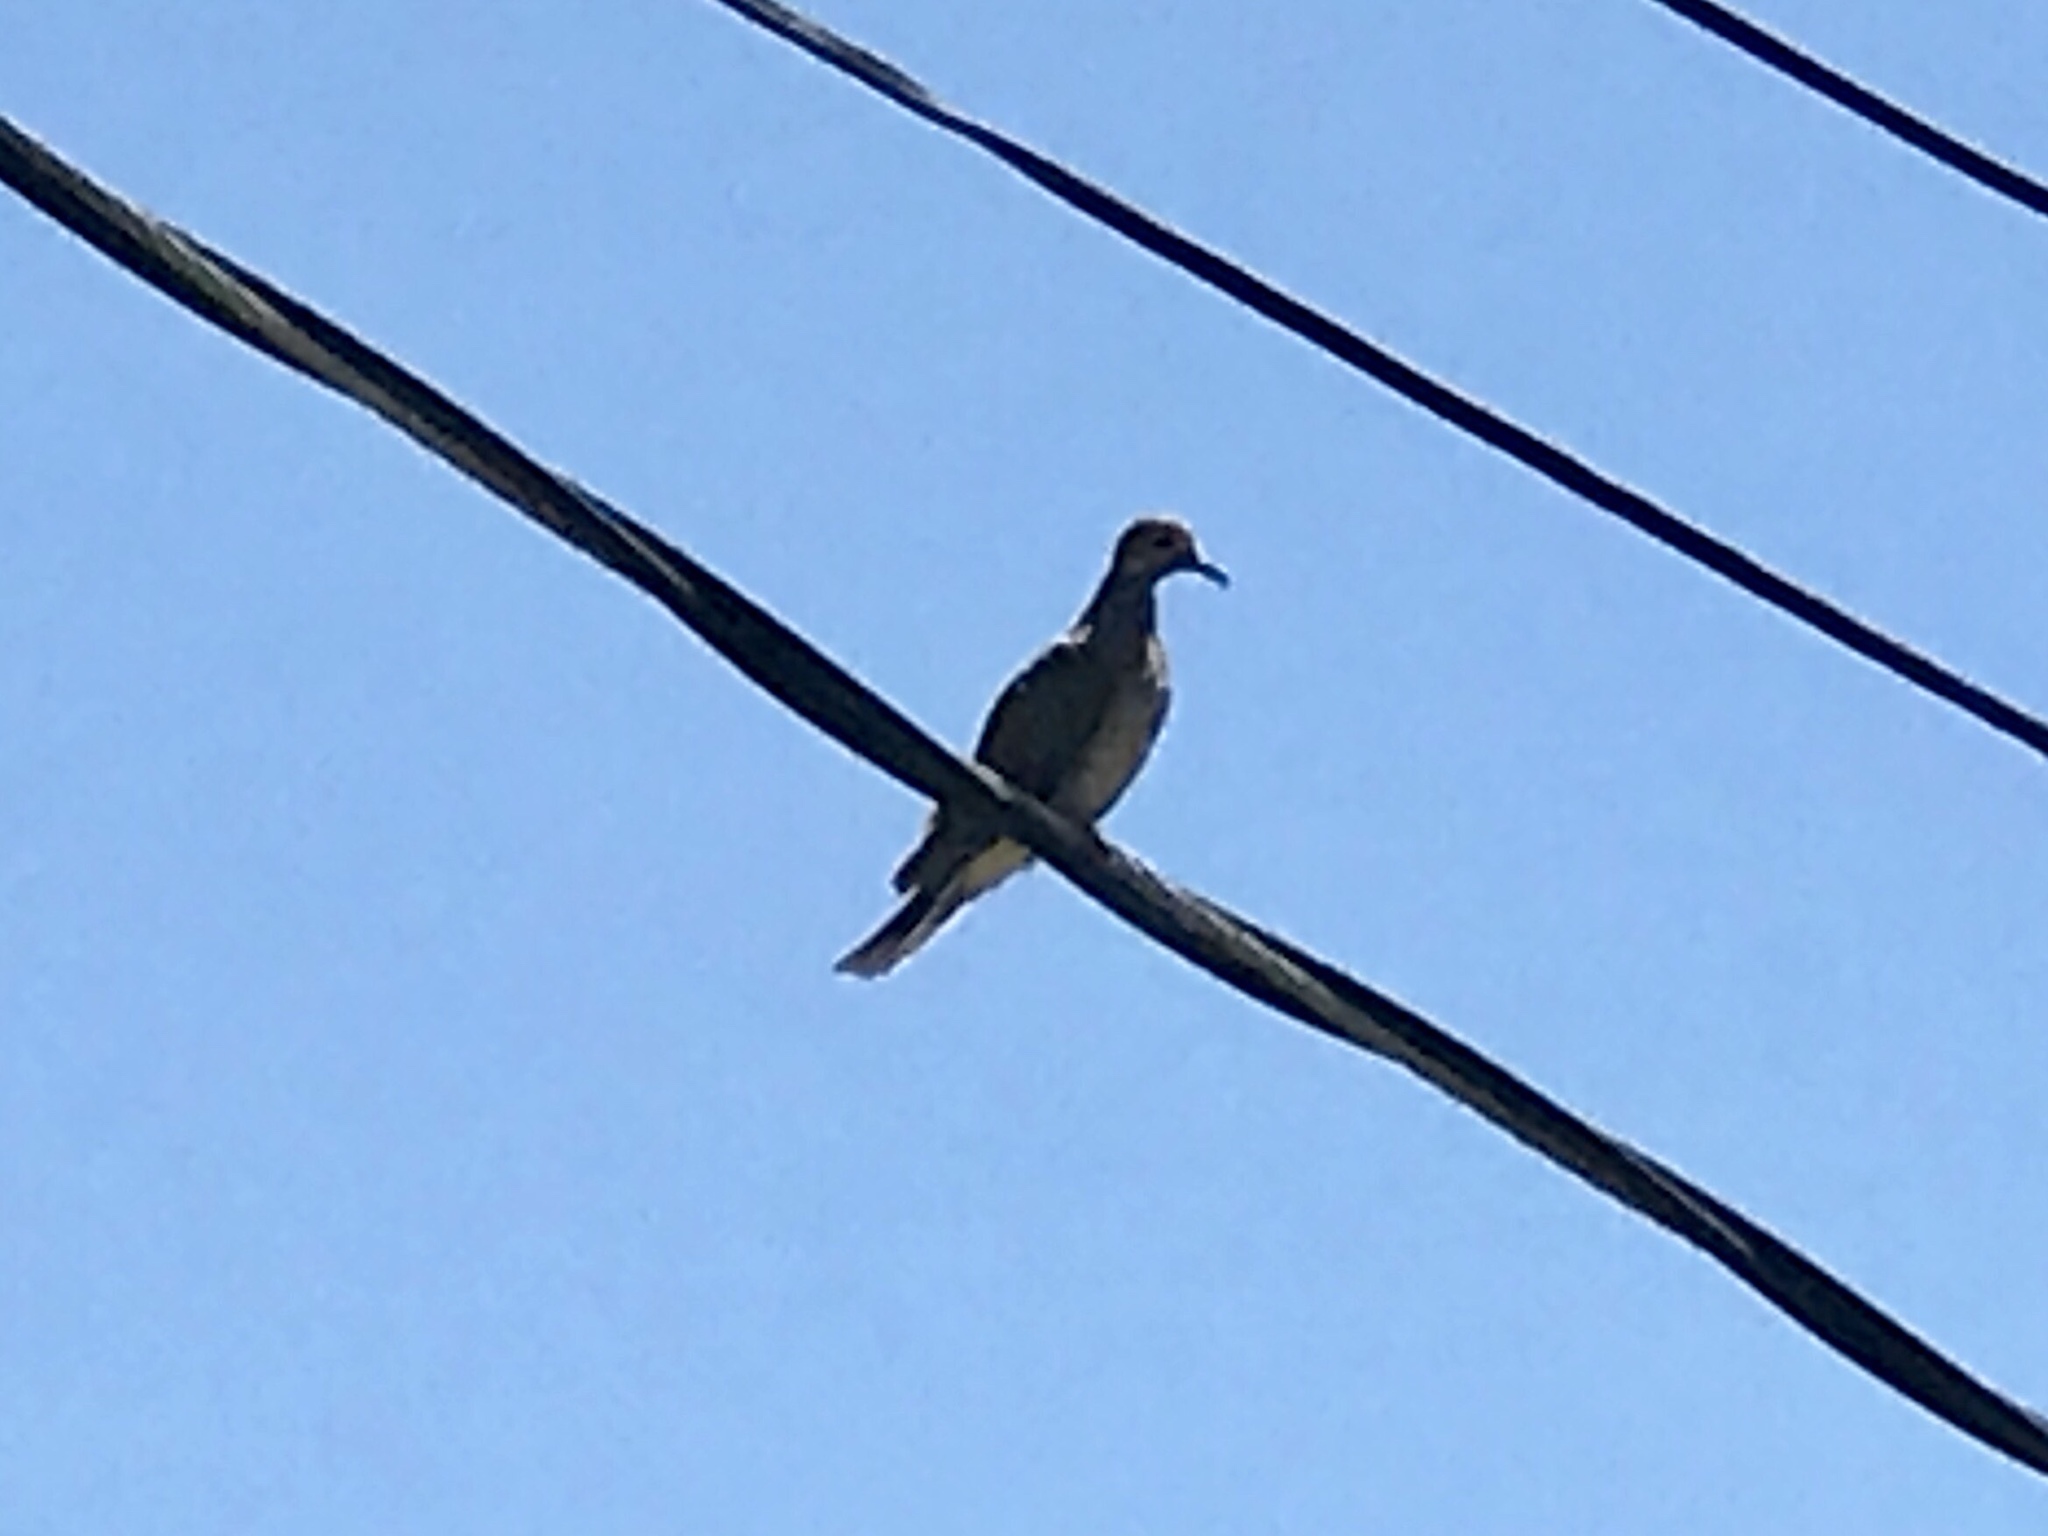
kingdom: Animalia
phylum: Chordata
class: Aves
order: Columbiformes
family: Columbidae
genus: Zenaida
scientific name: Zenaida macroura
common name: Mourning dove
